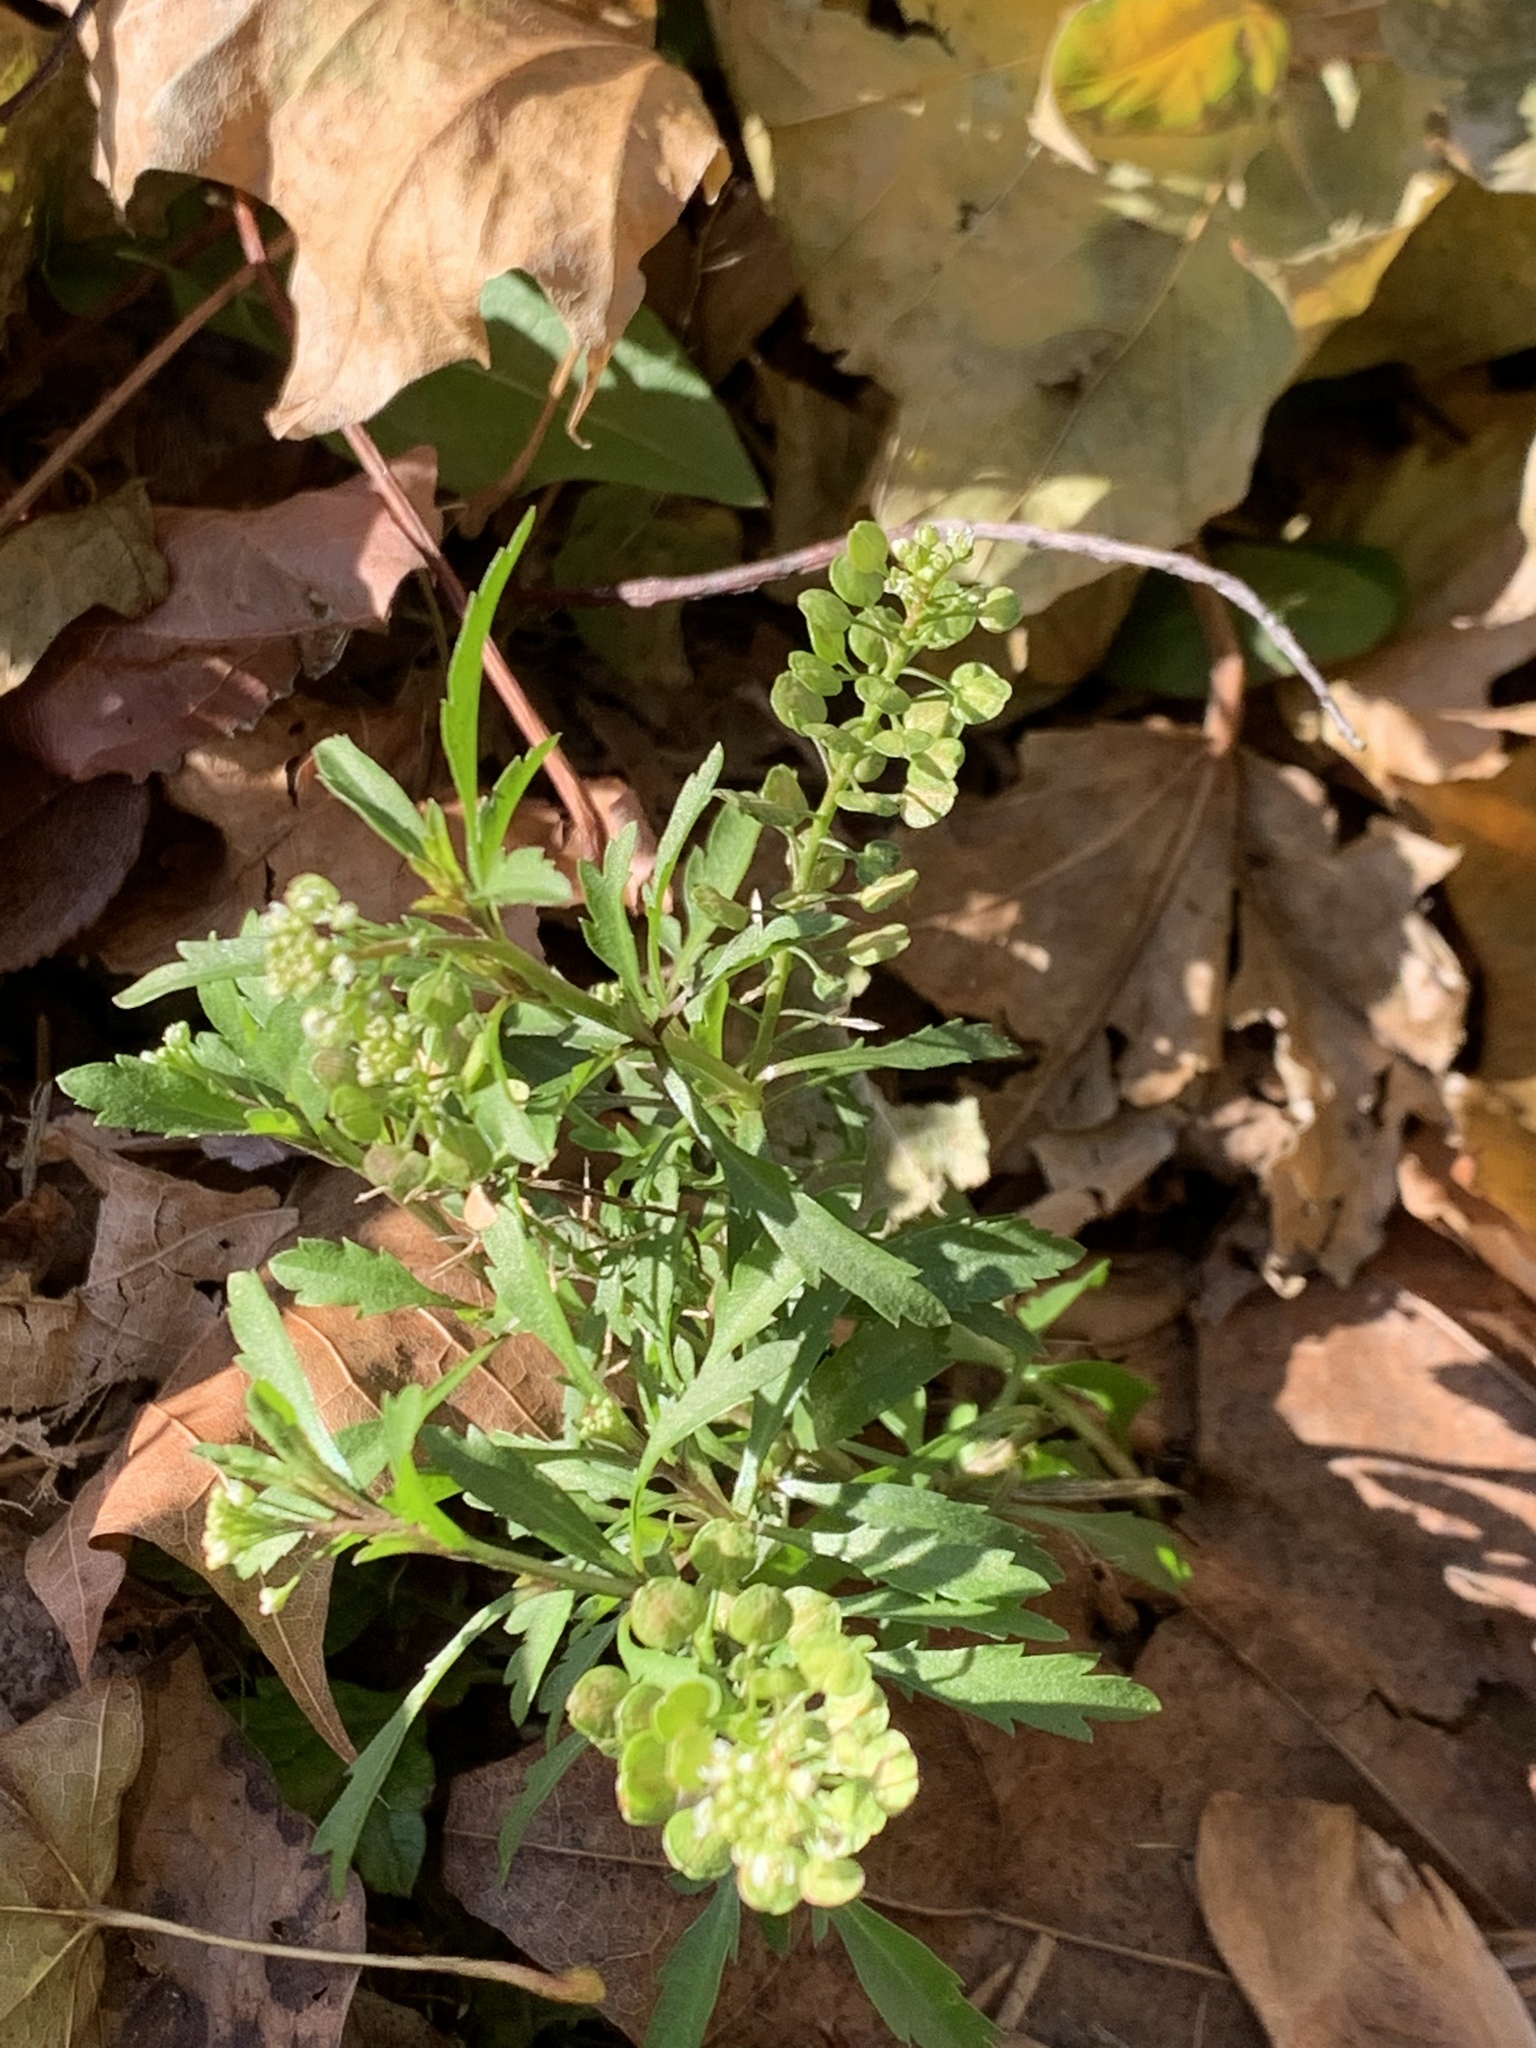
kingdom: Plantae
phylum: Tracheophyta
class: Magnoliopsida
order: Brassicales
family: Brassicaceae
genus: Lepidium
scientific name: Lepidium virginicum
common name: Least pepperwort
